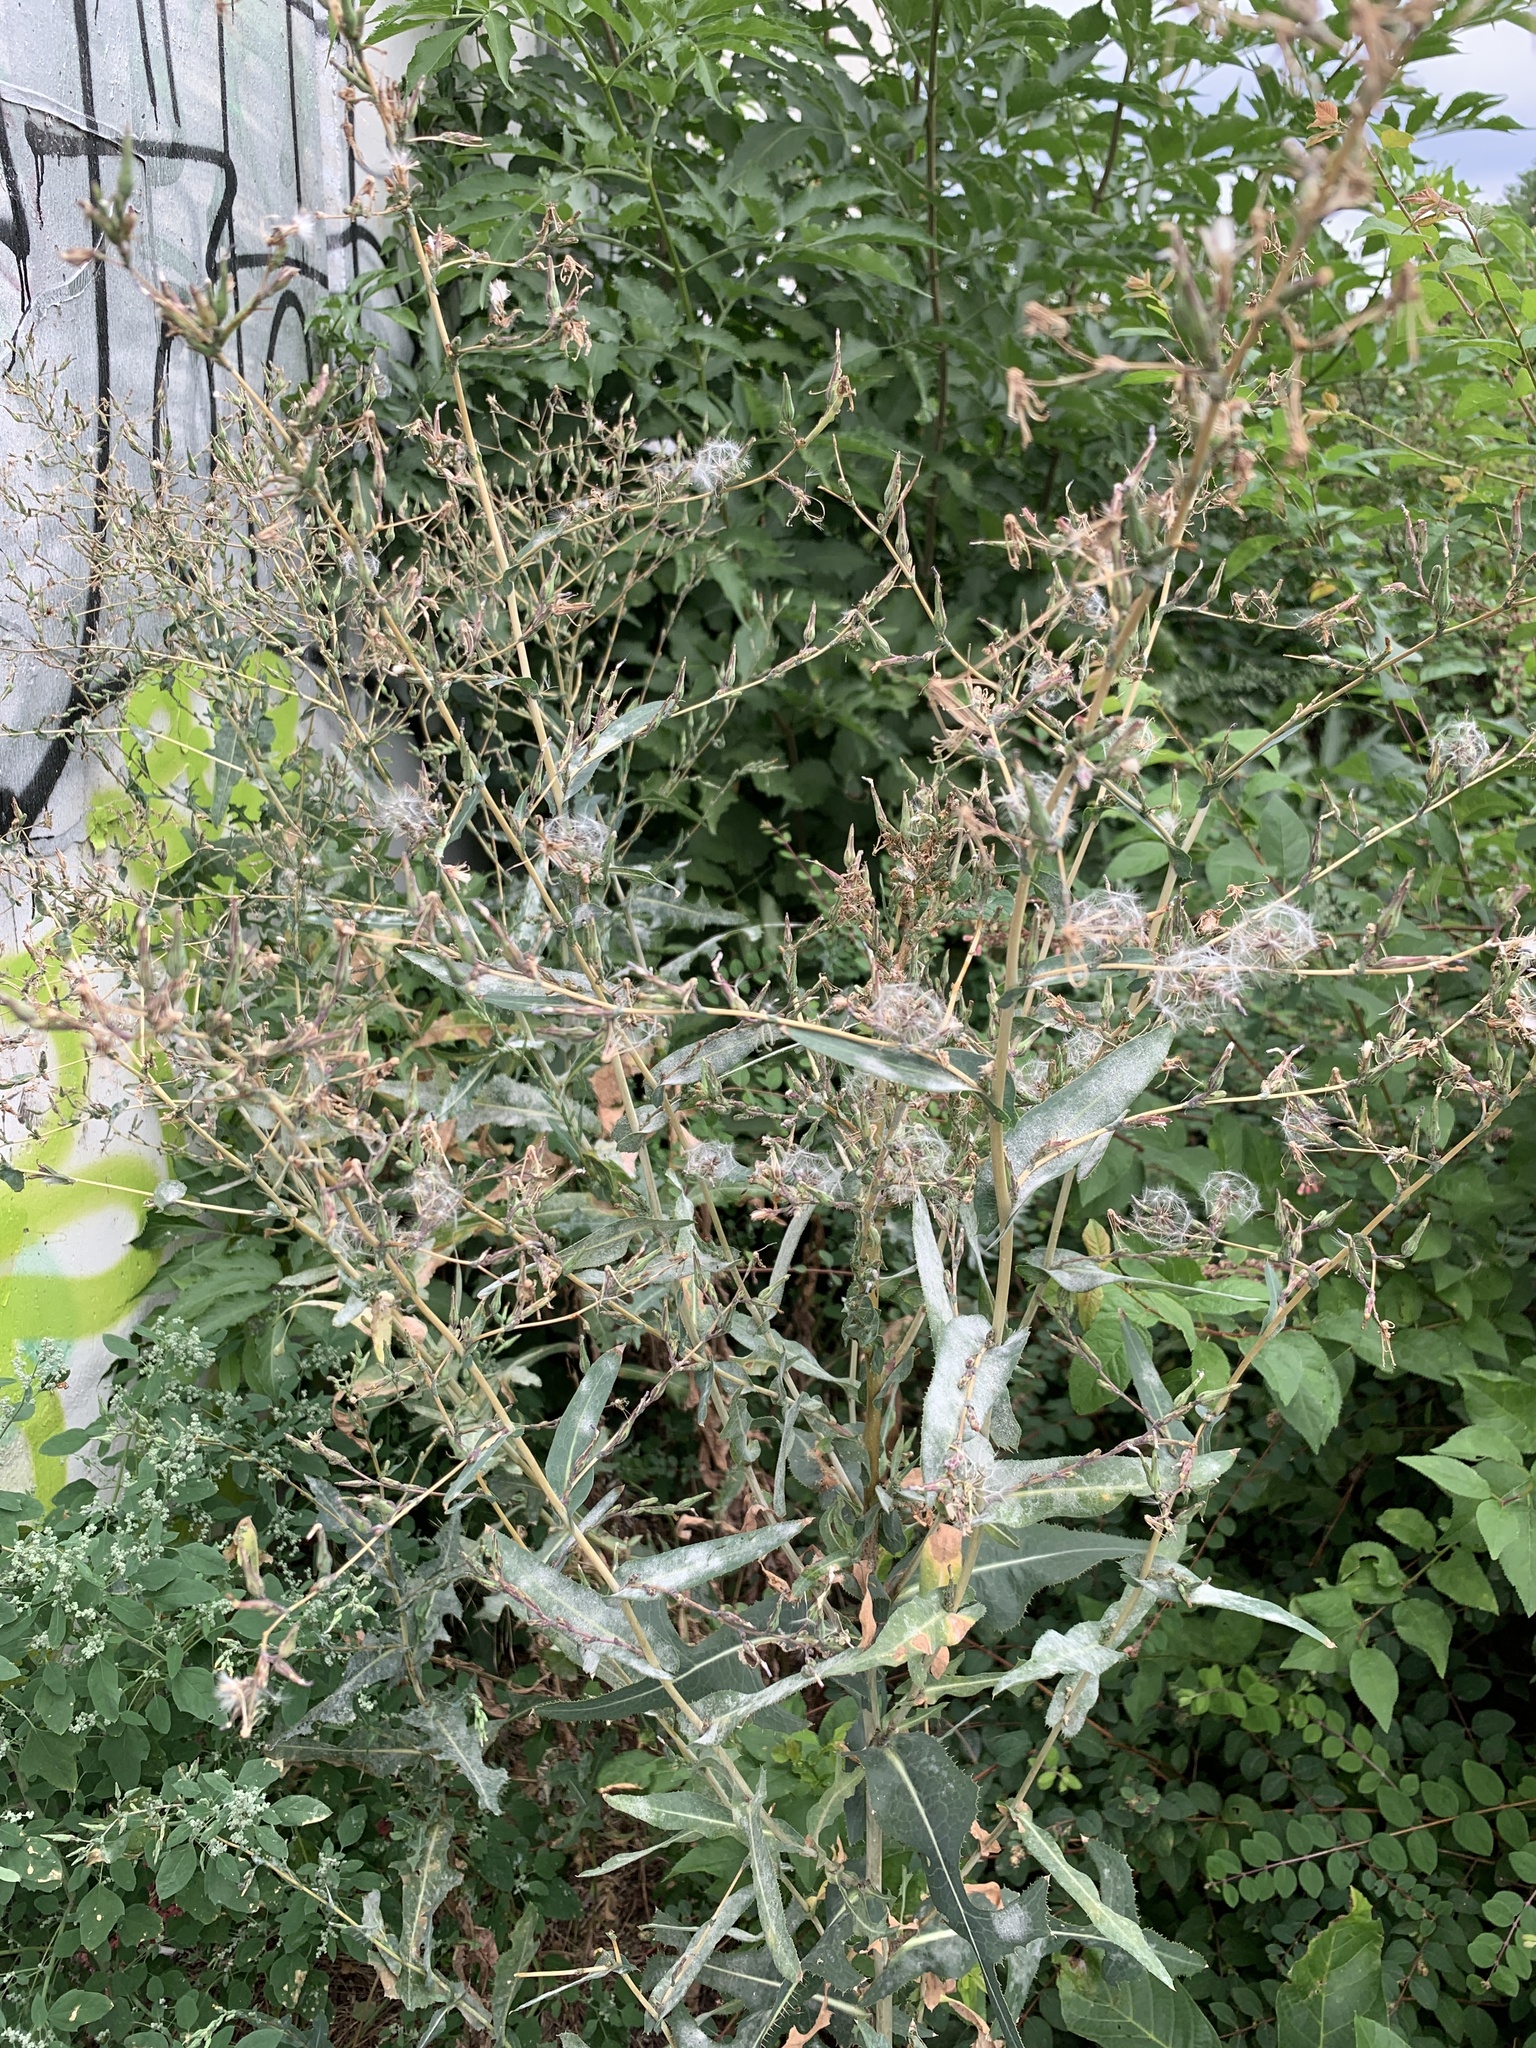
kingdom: Plantae
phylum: Tracheophyta
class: Magnoliopsida
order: Asterales
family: Asteraceae
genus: Lactuca
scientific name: Lactuca serriola
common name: Prickly lettuce
